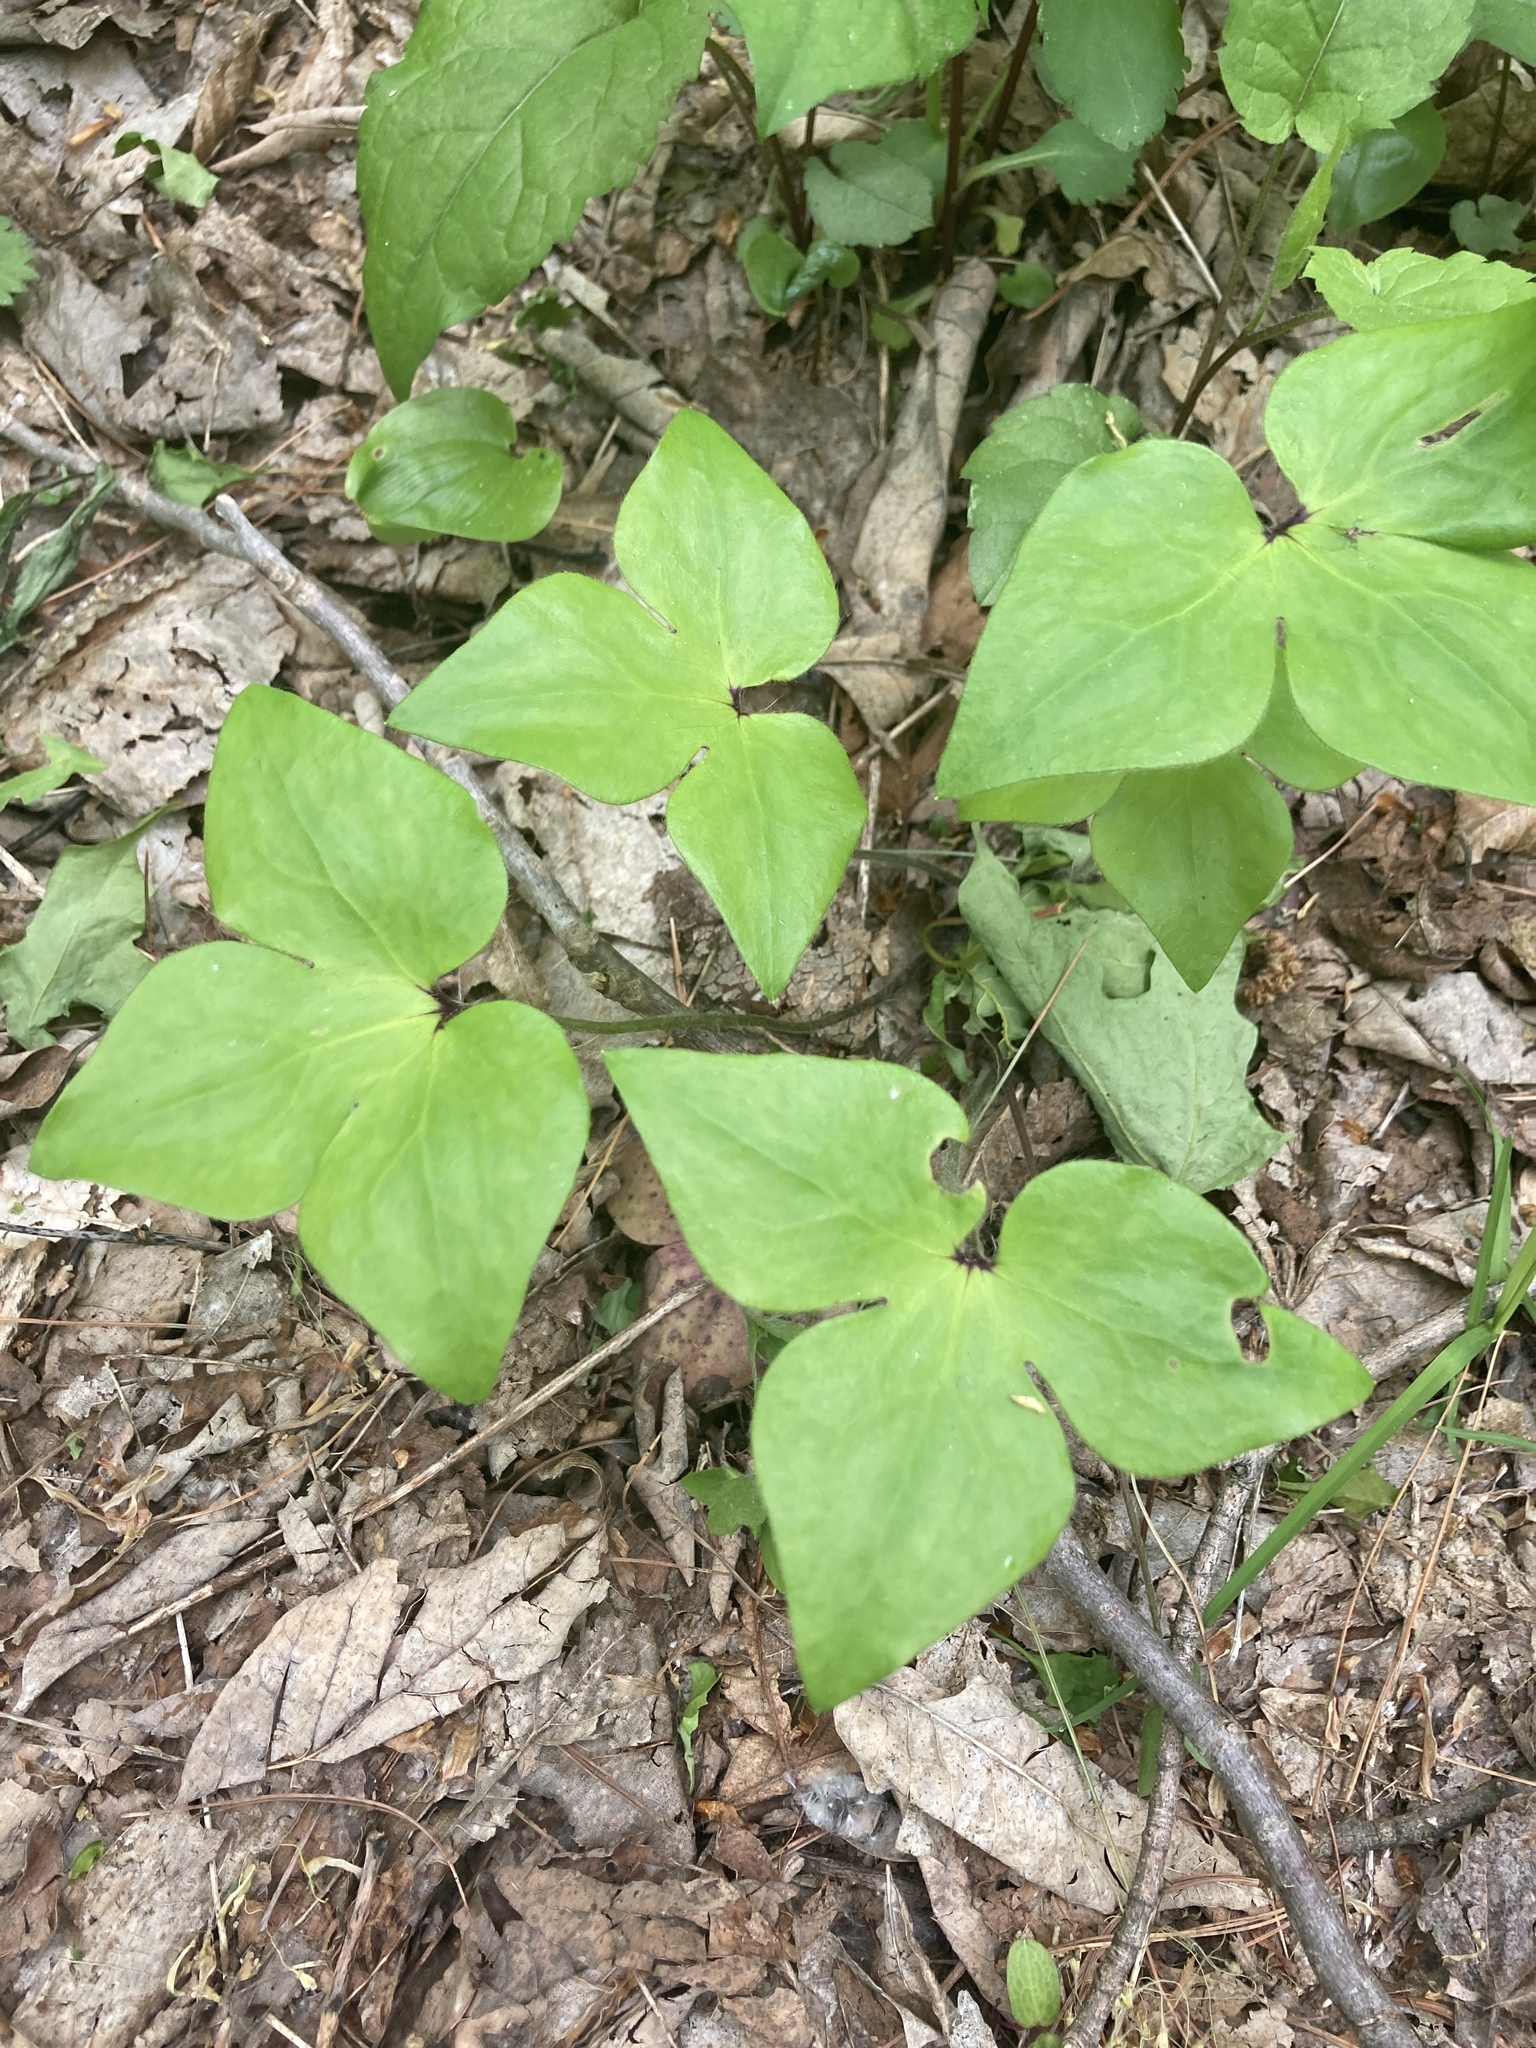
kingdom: Plantae
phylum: Tracheophyta
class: Magnoliopsida
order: Ranunculales
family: Ranunculaceae
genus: Hepatica
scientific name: Hepatica acutiloba
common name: Sharp-lobed hepatica
